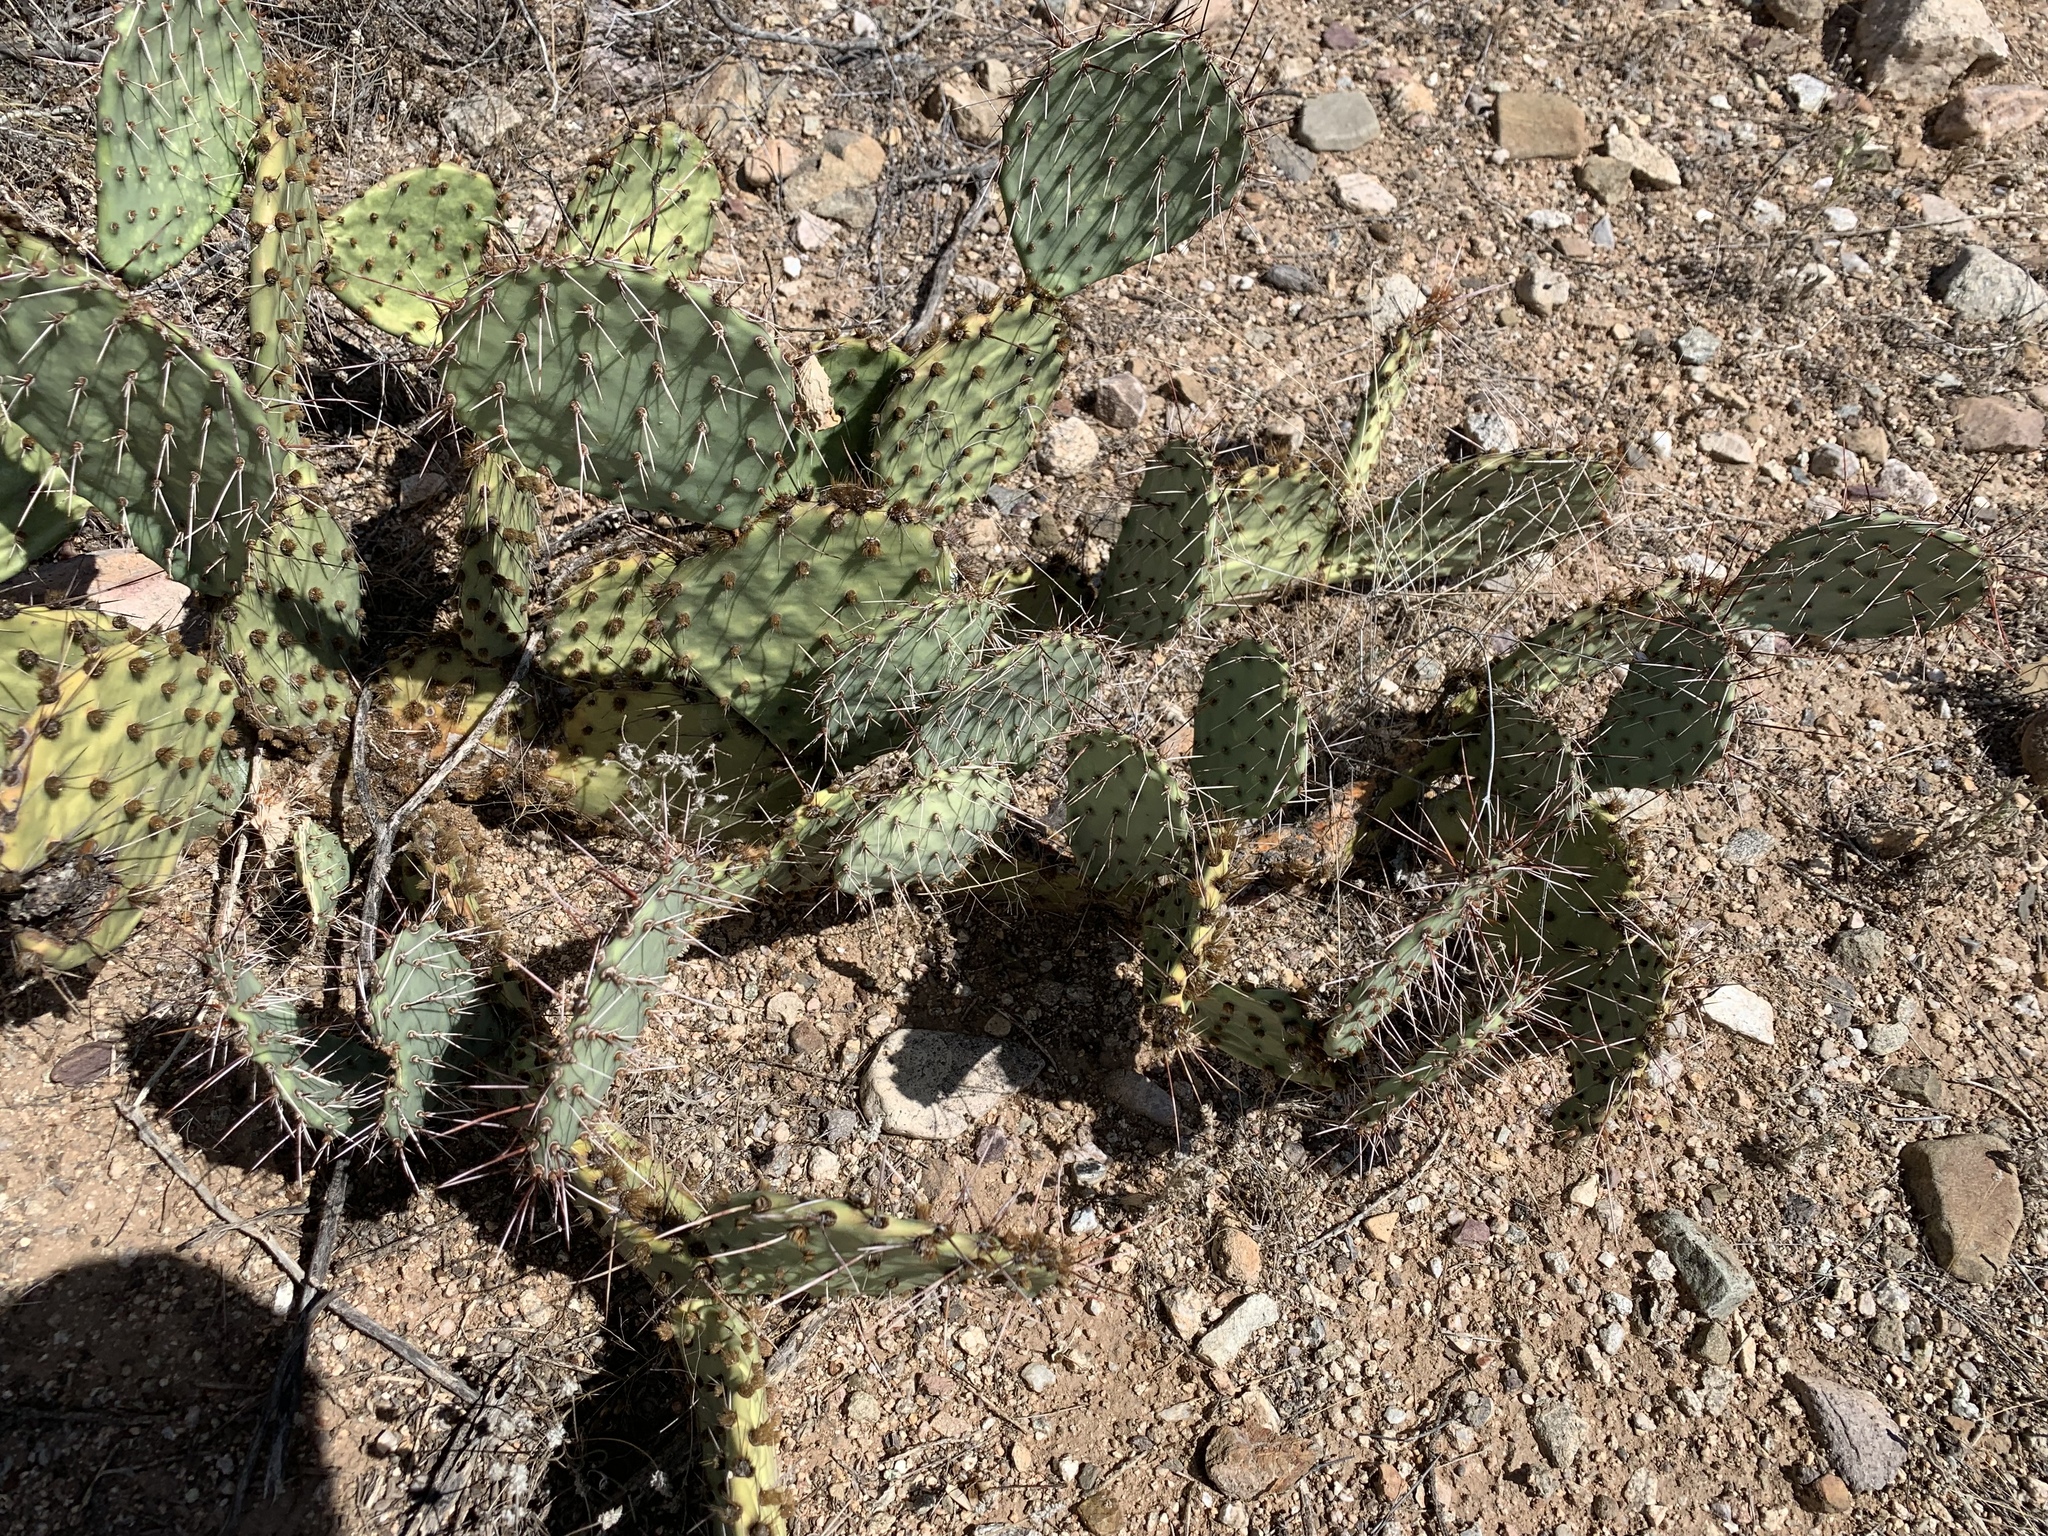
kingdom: Plantae
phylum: Tracheophyta
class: Magnoliopsida
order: Caryophyllales
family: Cactaceae
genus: Opuntia
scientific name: Opuntia engelmannii
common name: Cactus-apple
